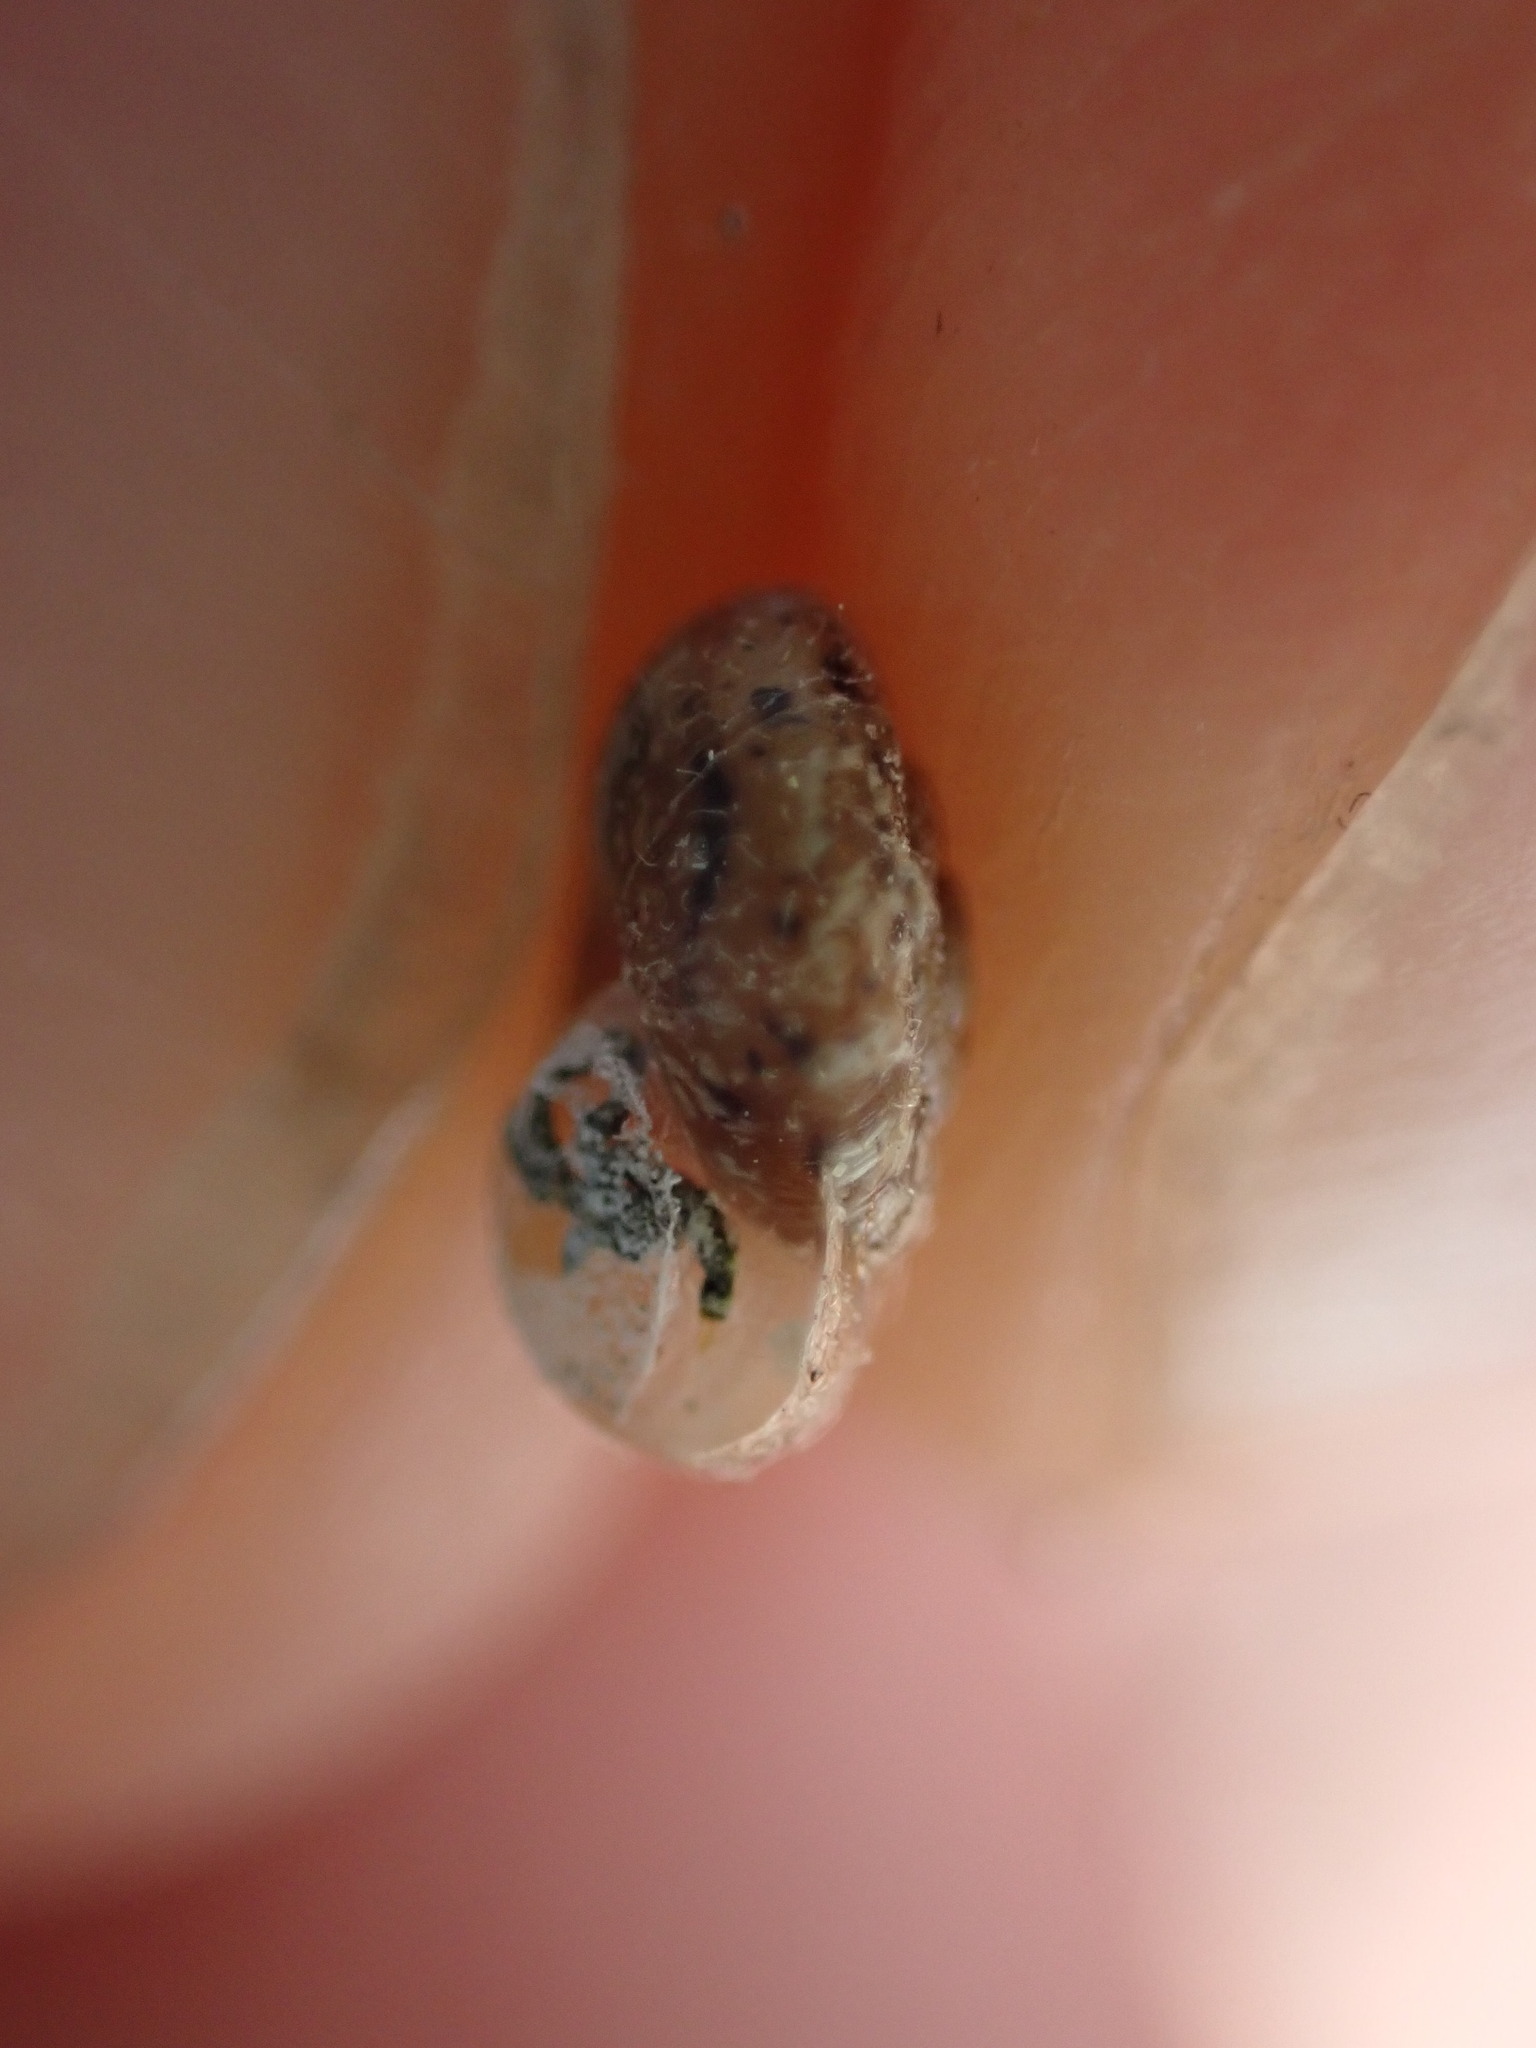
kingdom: Animalia
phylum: Mollusca
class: Gastropoda
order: Stylommatophora
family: Geomitridae
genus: Xerotricha
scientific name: Xerotricha conspurcata
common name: Snail
